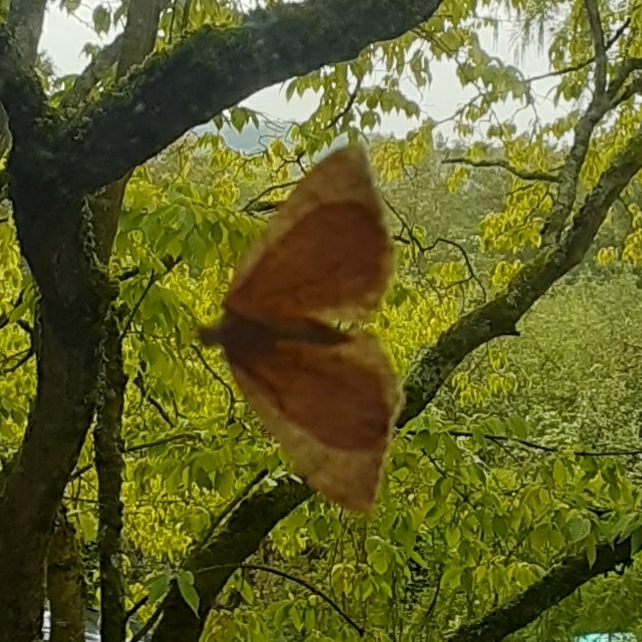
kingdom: Animalia
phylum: Arthropoda
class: Insecta
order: Lepidoptera
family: Geometridae
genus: Camptogramma
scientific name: Camptogramma bilineata
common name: Yellow shell
